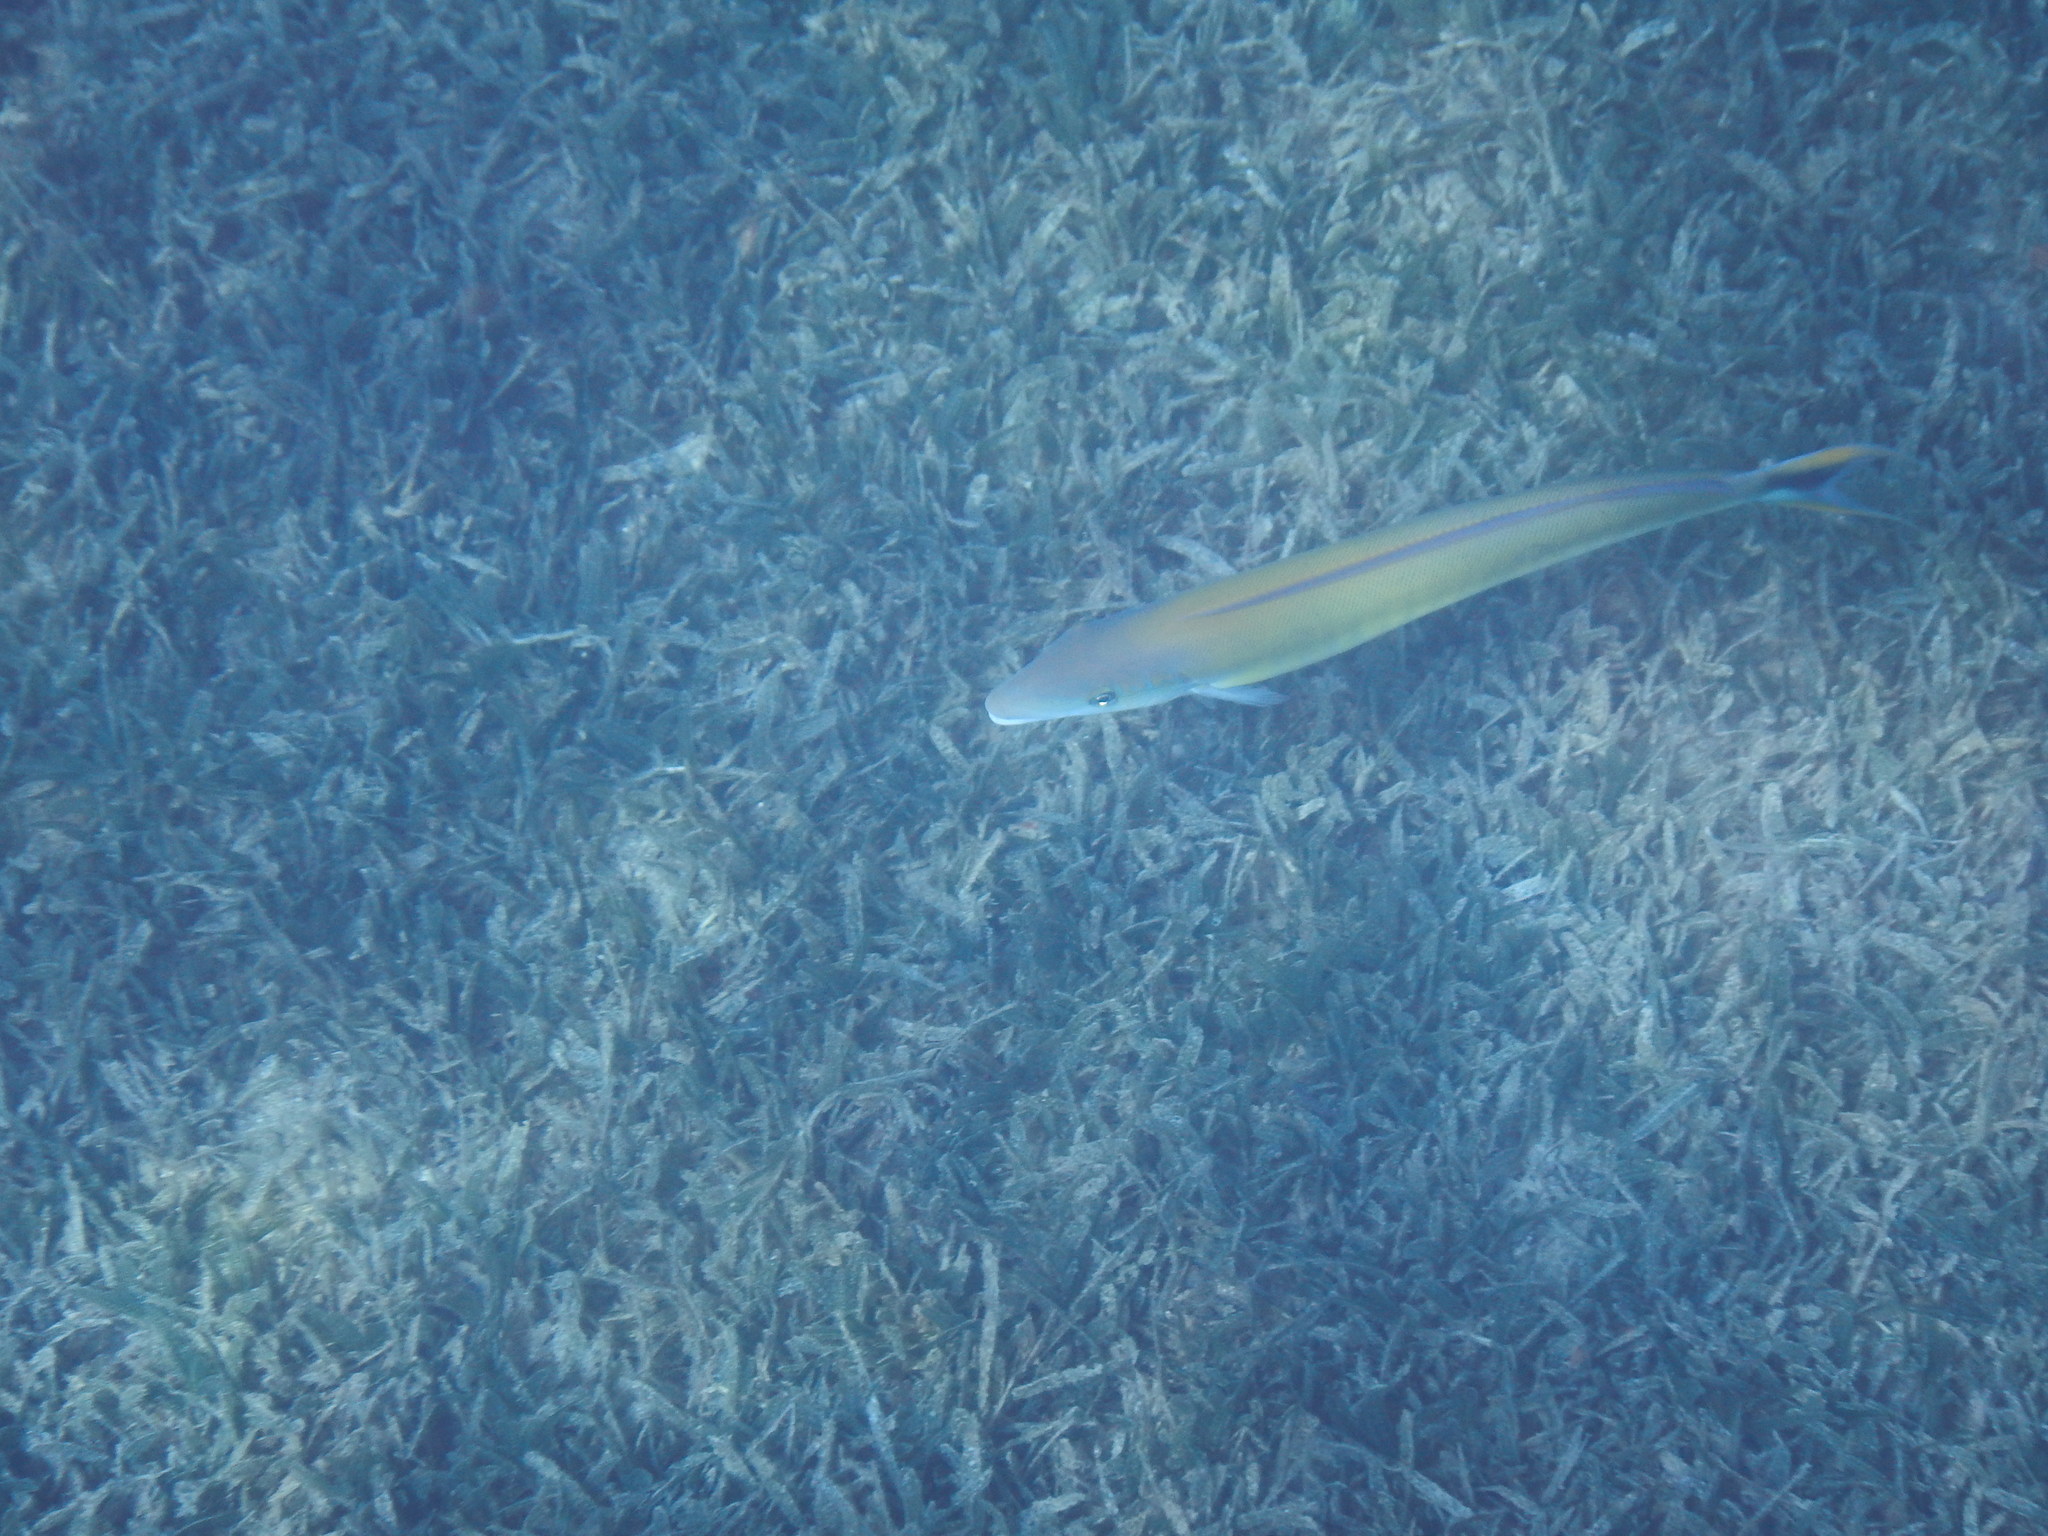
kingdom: Animalia
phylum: Chordata
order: Perciformes
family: Malacanthidae
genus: Malacanthus
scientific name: Malacanthus plumieri
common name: Sand tilefish
